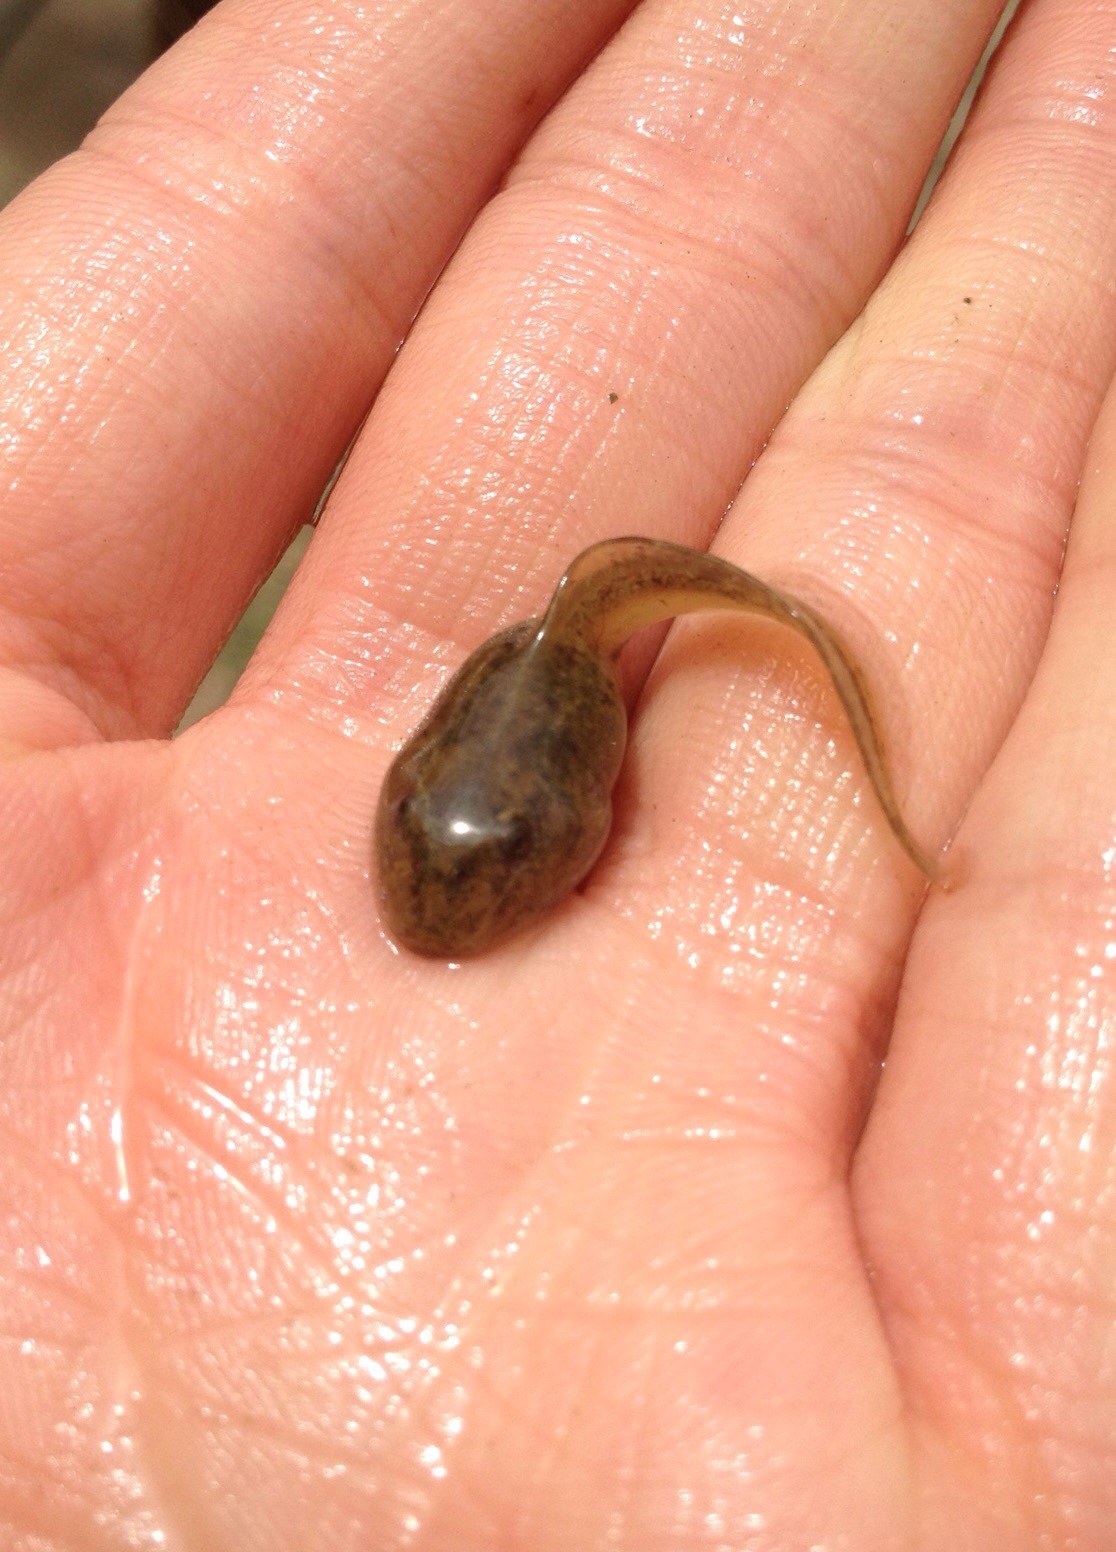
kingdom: Animalia
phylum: Chordata
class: Amphibia
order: Anura
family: Alytidae
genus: Alytes
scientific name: Alytes obstetricans
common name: Midwife toad
